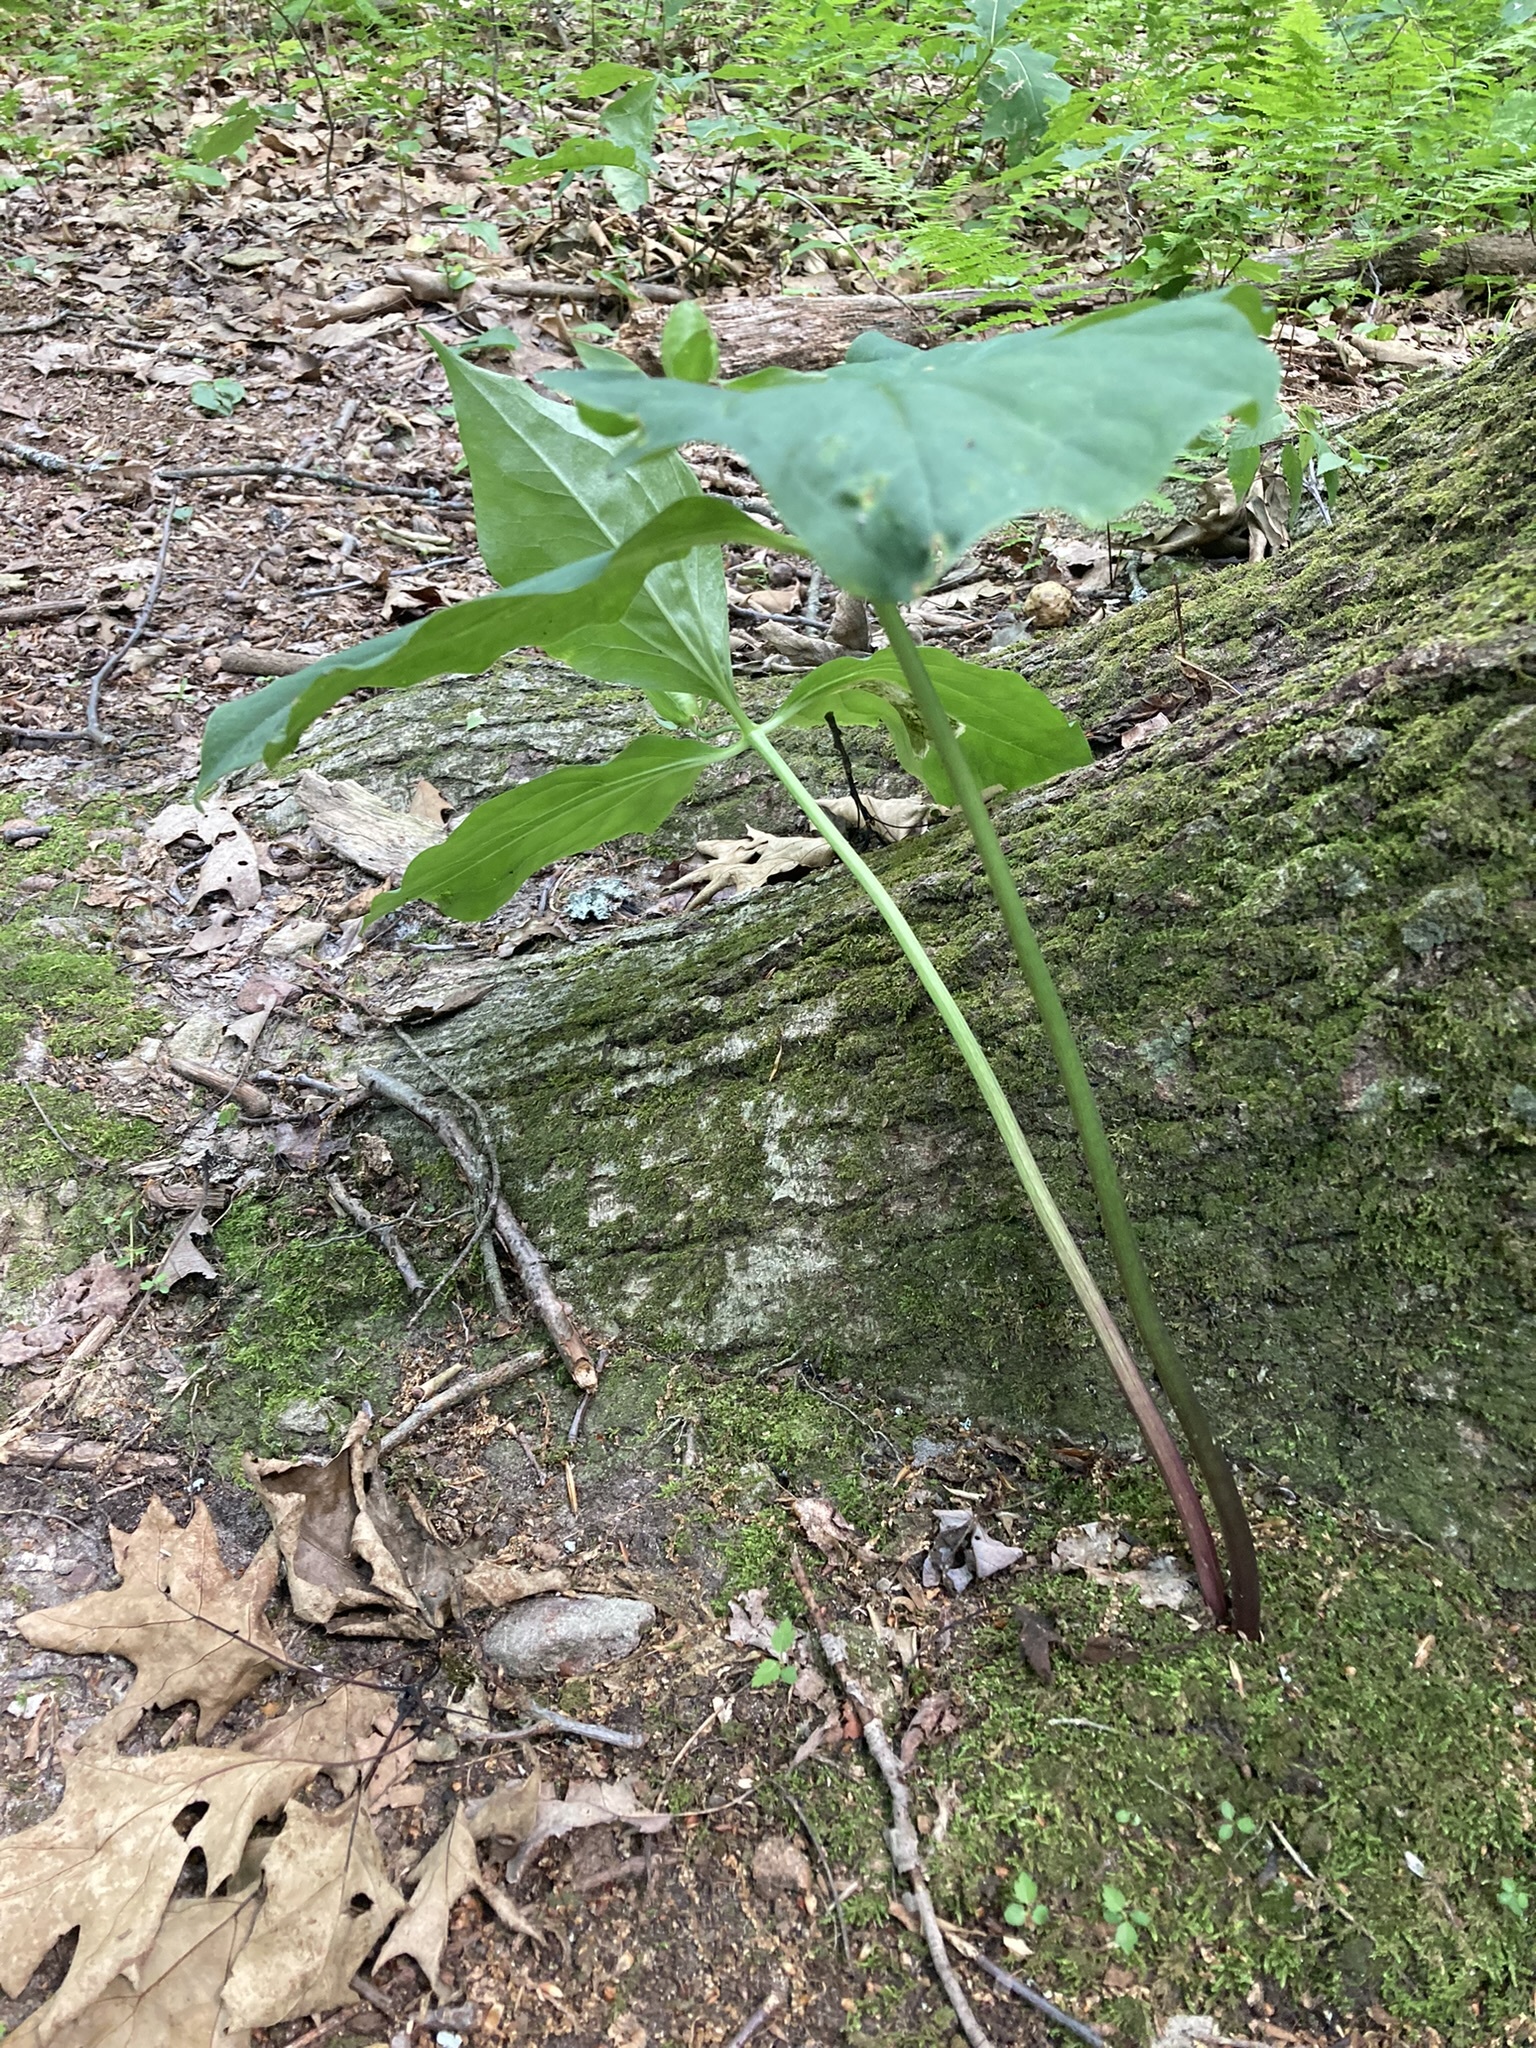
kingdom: Plantae
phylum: Tracheophyta
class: Liliopsida
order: Liliales
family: Melanthiaceae
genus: Trillium
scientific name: Trillium undulatum
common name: Paint trillium
